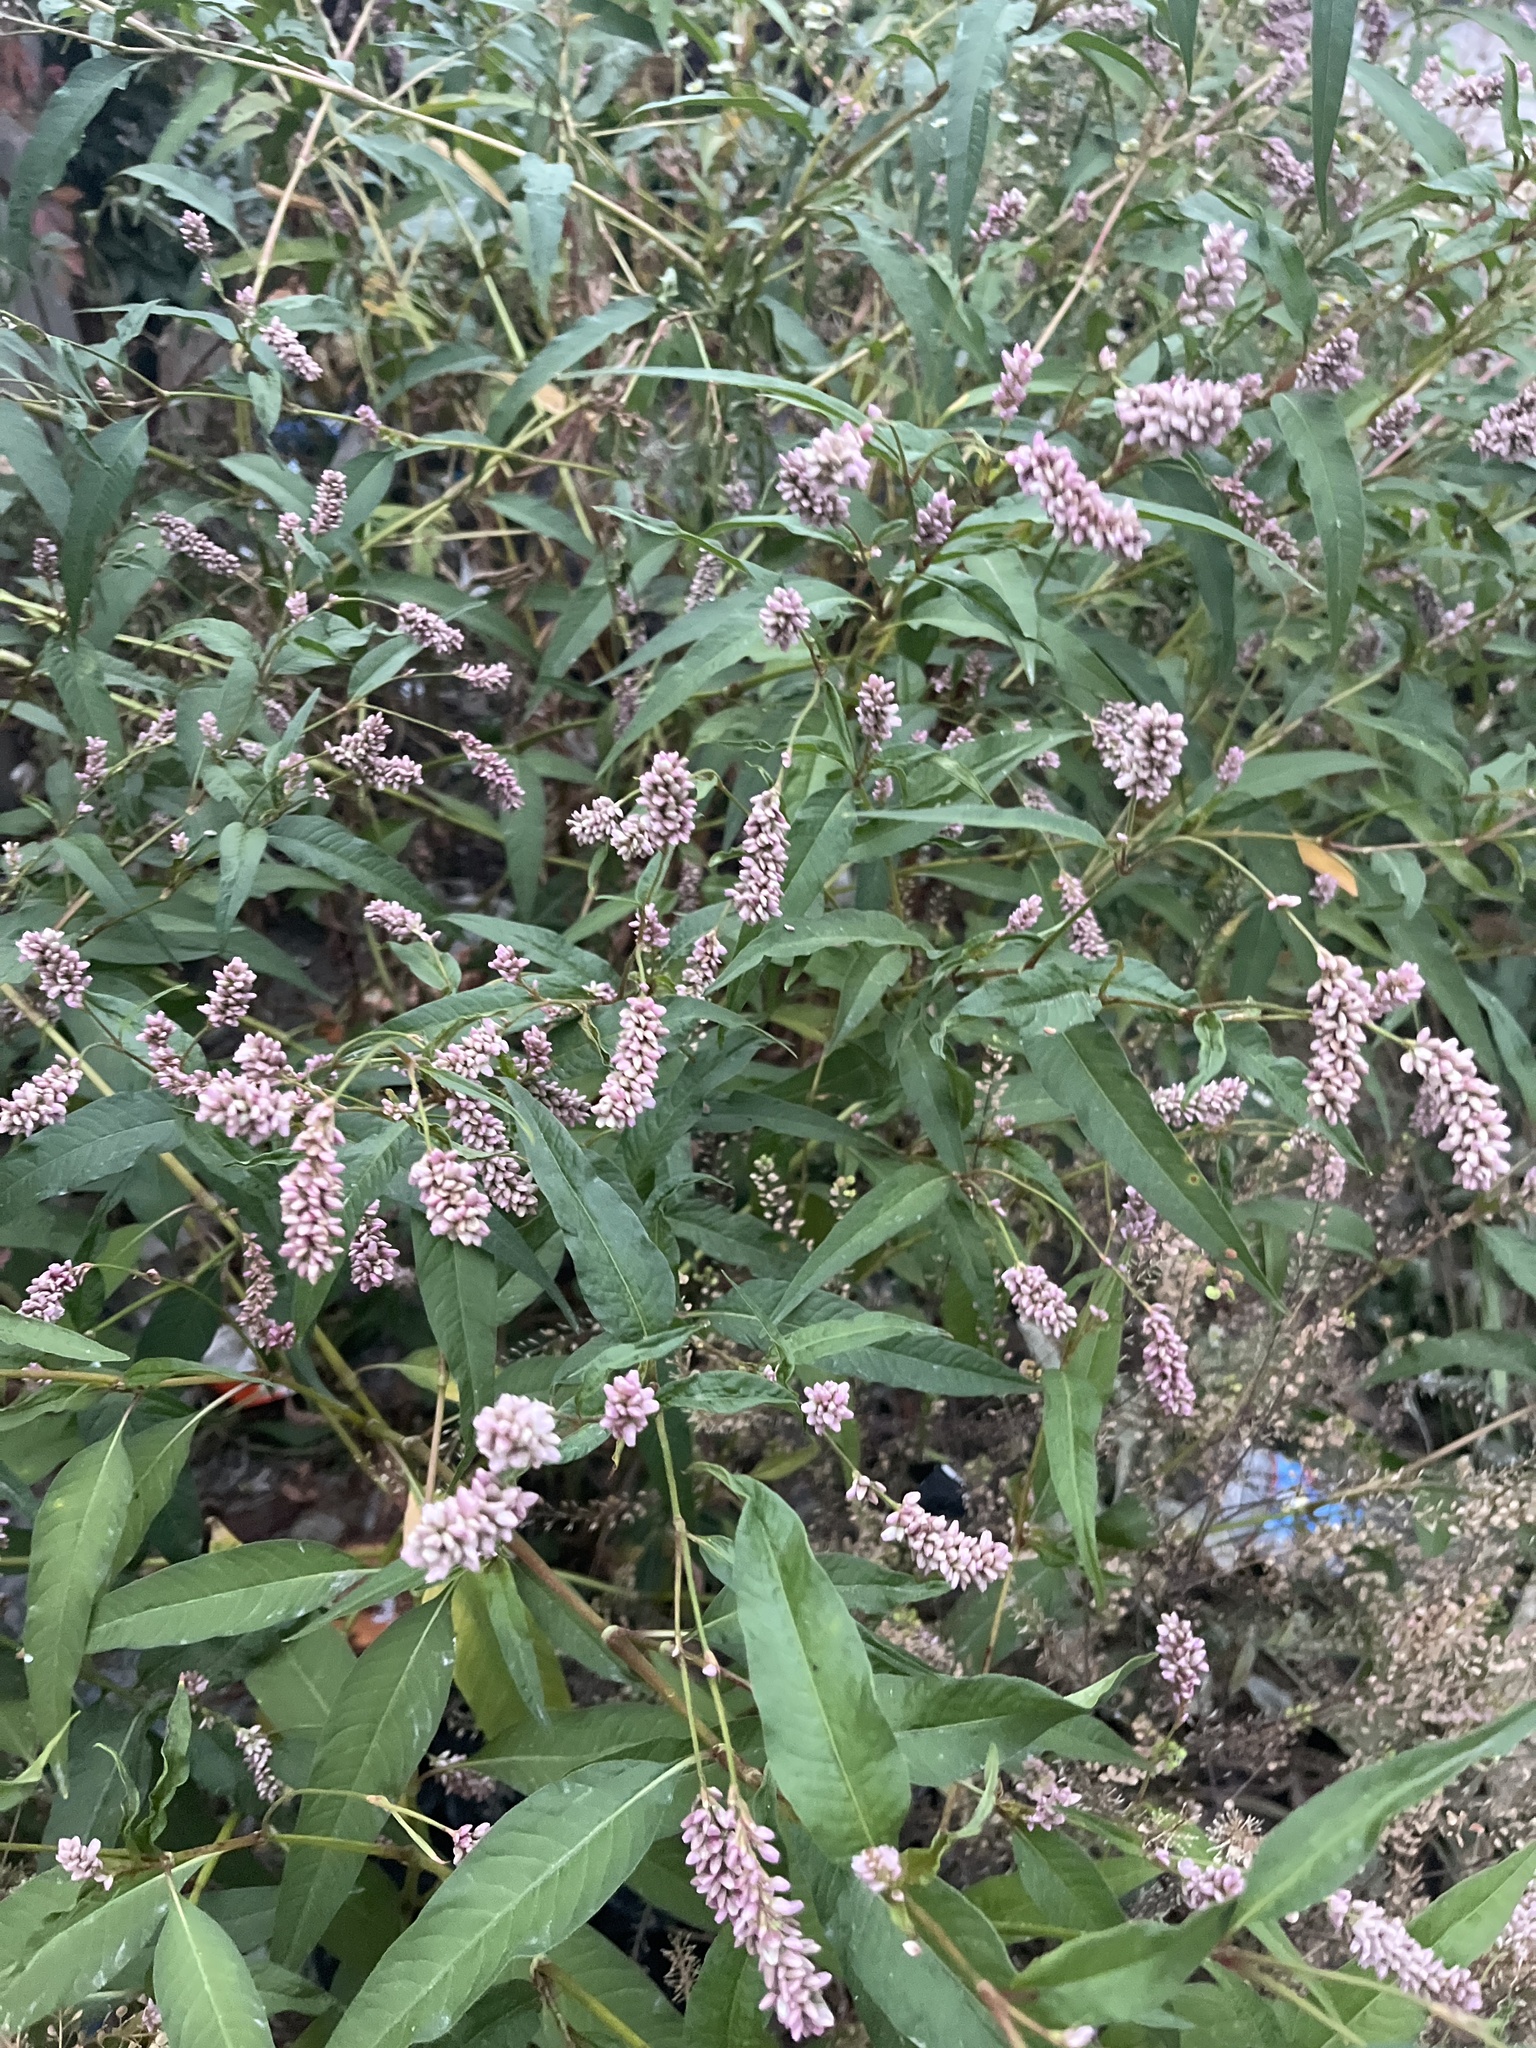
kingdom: Plantae
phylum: Tracheophyta
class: Magnoliopsida
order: Caryophyllales
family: Polygonaceae
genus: Persicaria
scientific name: Persicaria pensylvanica
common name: Pinkweed
